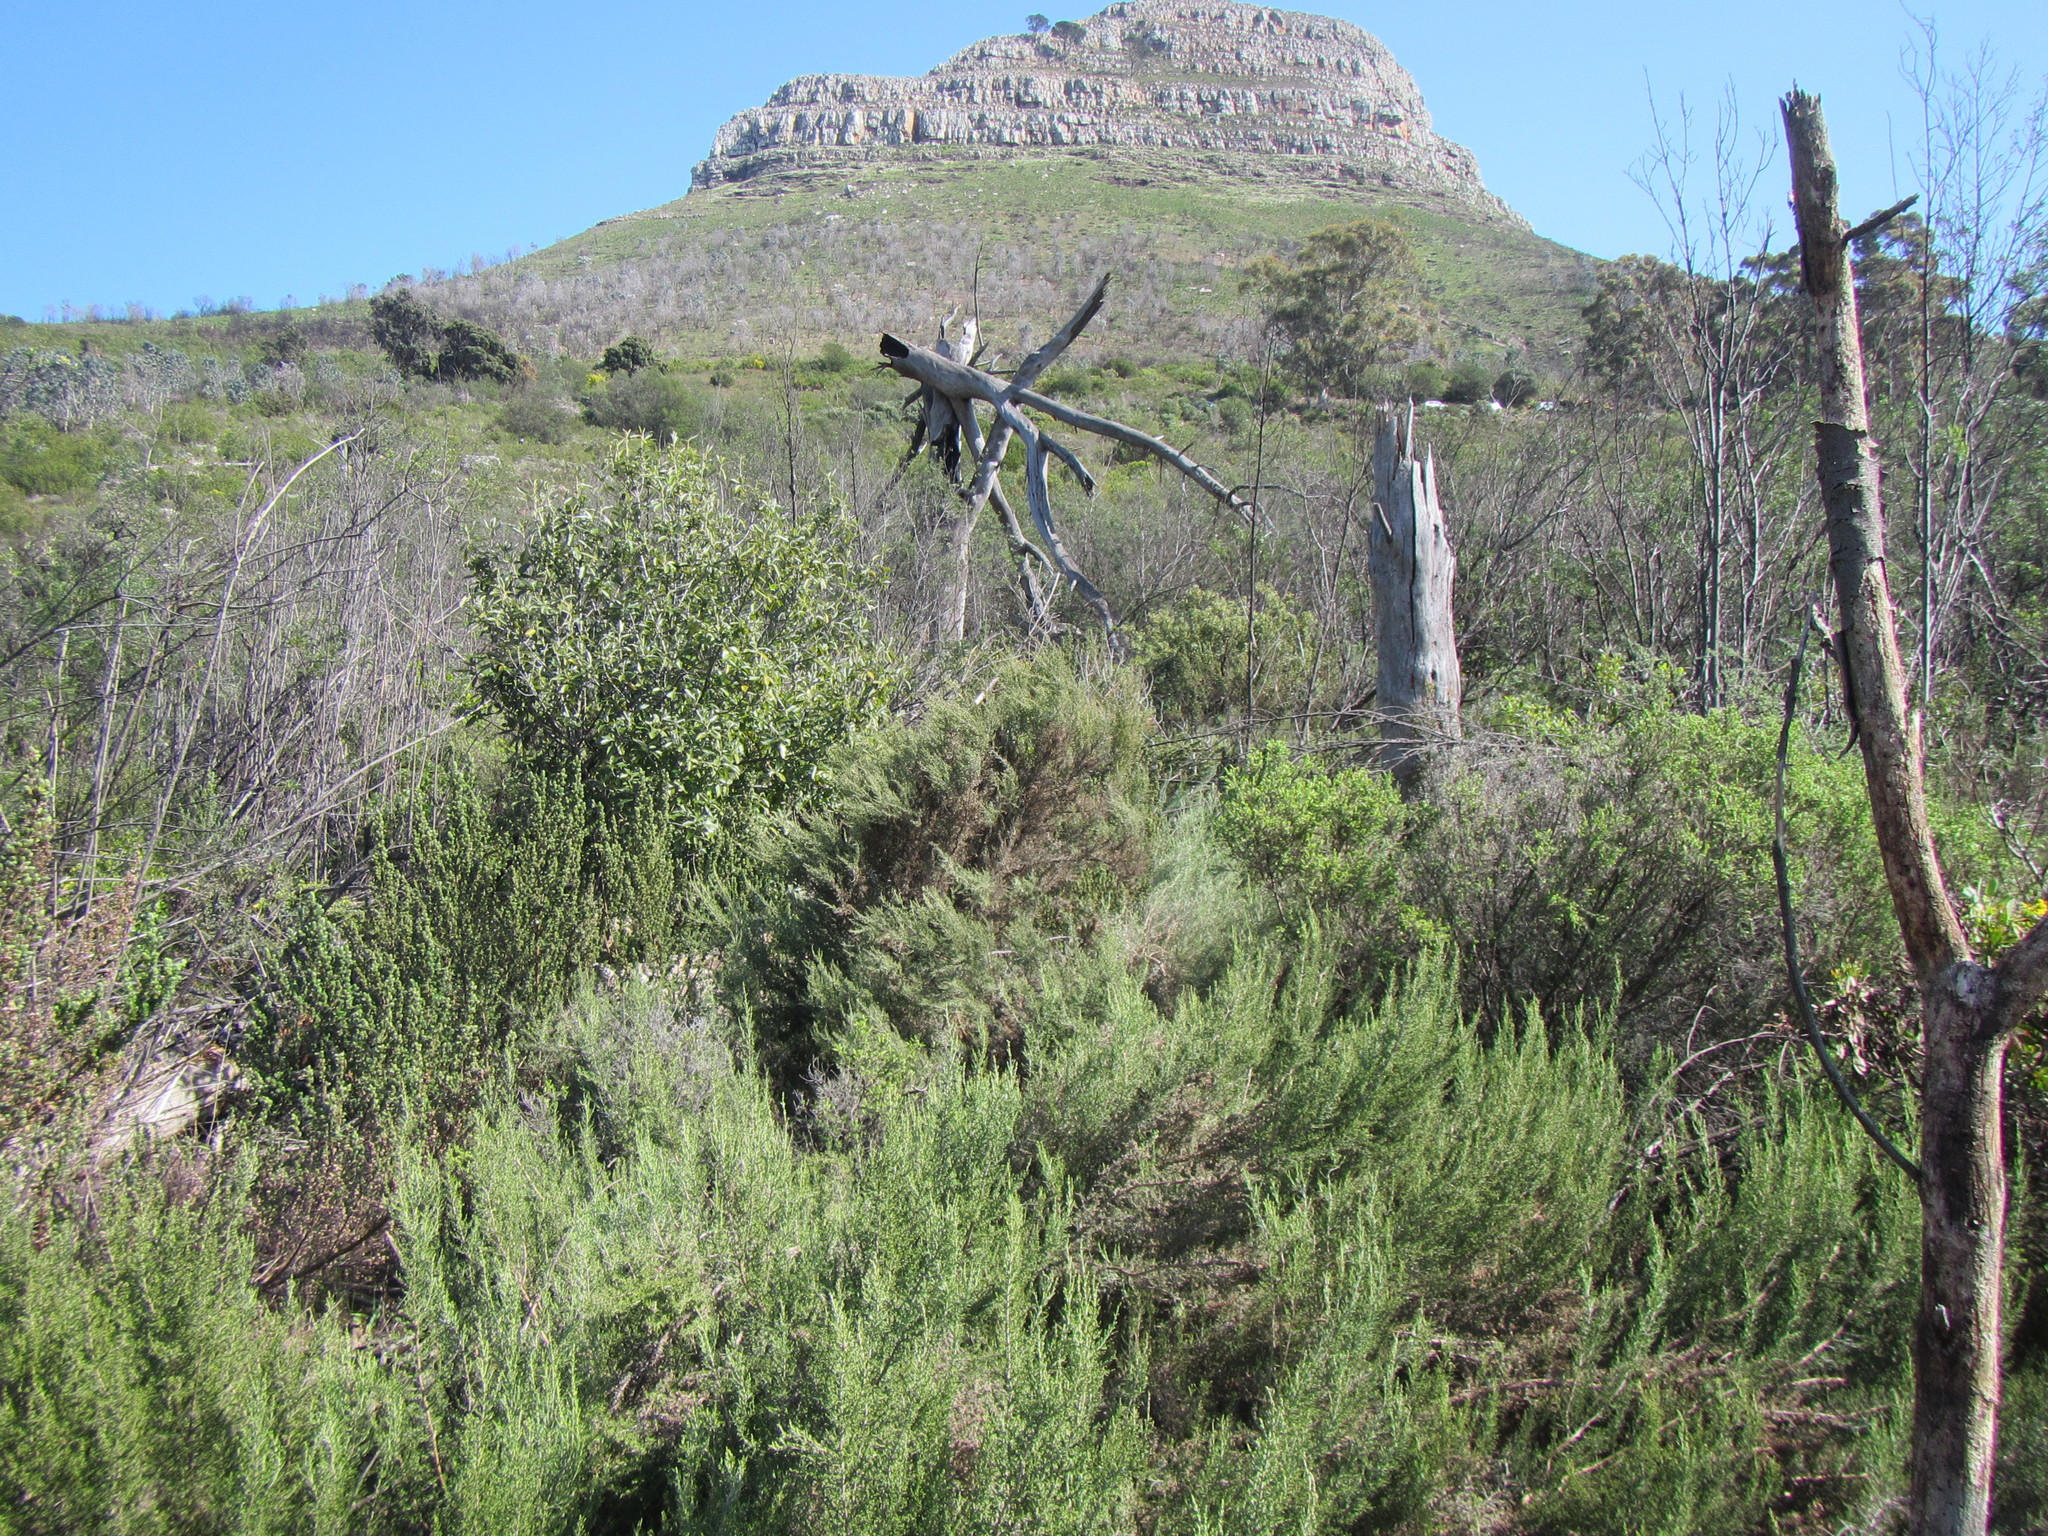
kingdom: Plantae
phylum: Tracheophyta
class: Magnoliopsida
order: Asterales
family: Asteraceae
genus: Dicerothamnus
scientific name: Dicerothamnus rhinocerotis
